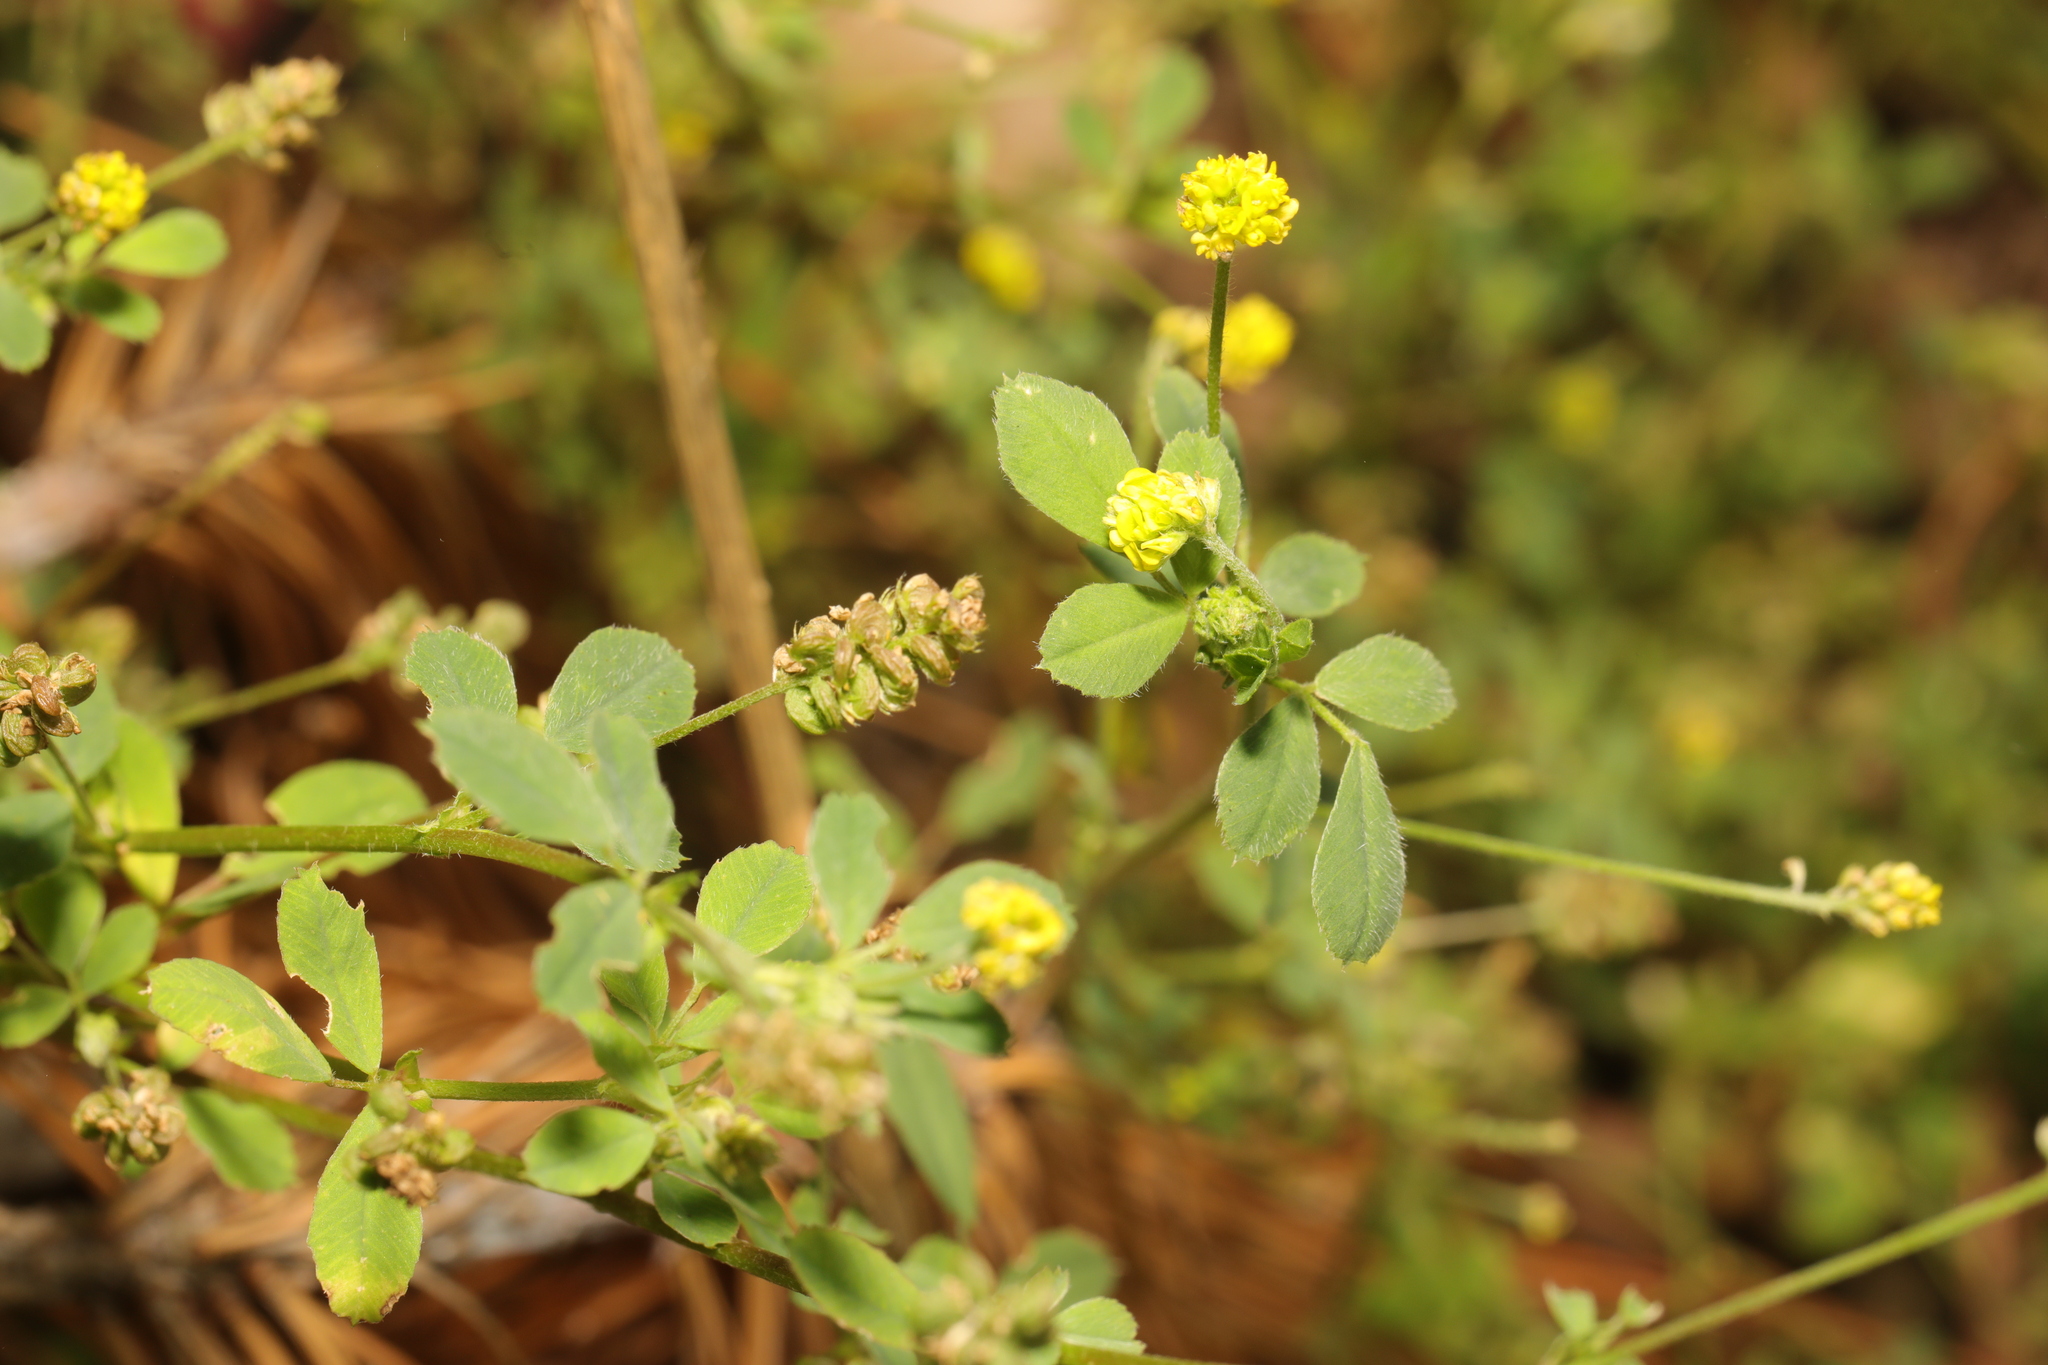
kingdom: Plantae
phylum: Tracheophyta
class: Magnoliopsida
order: Fabales
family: Fabaceae
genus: Medicago
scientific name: Medicago lupulina
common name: Black medick
